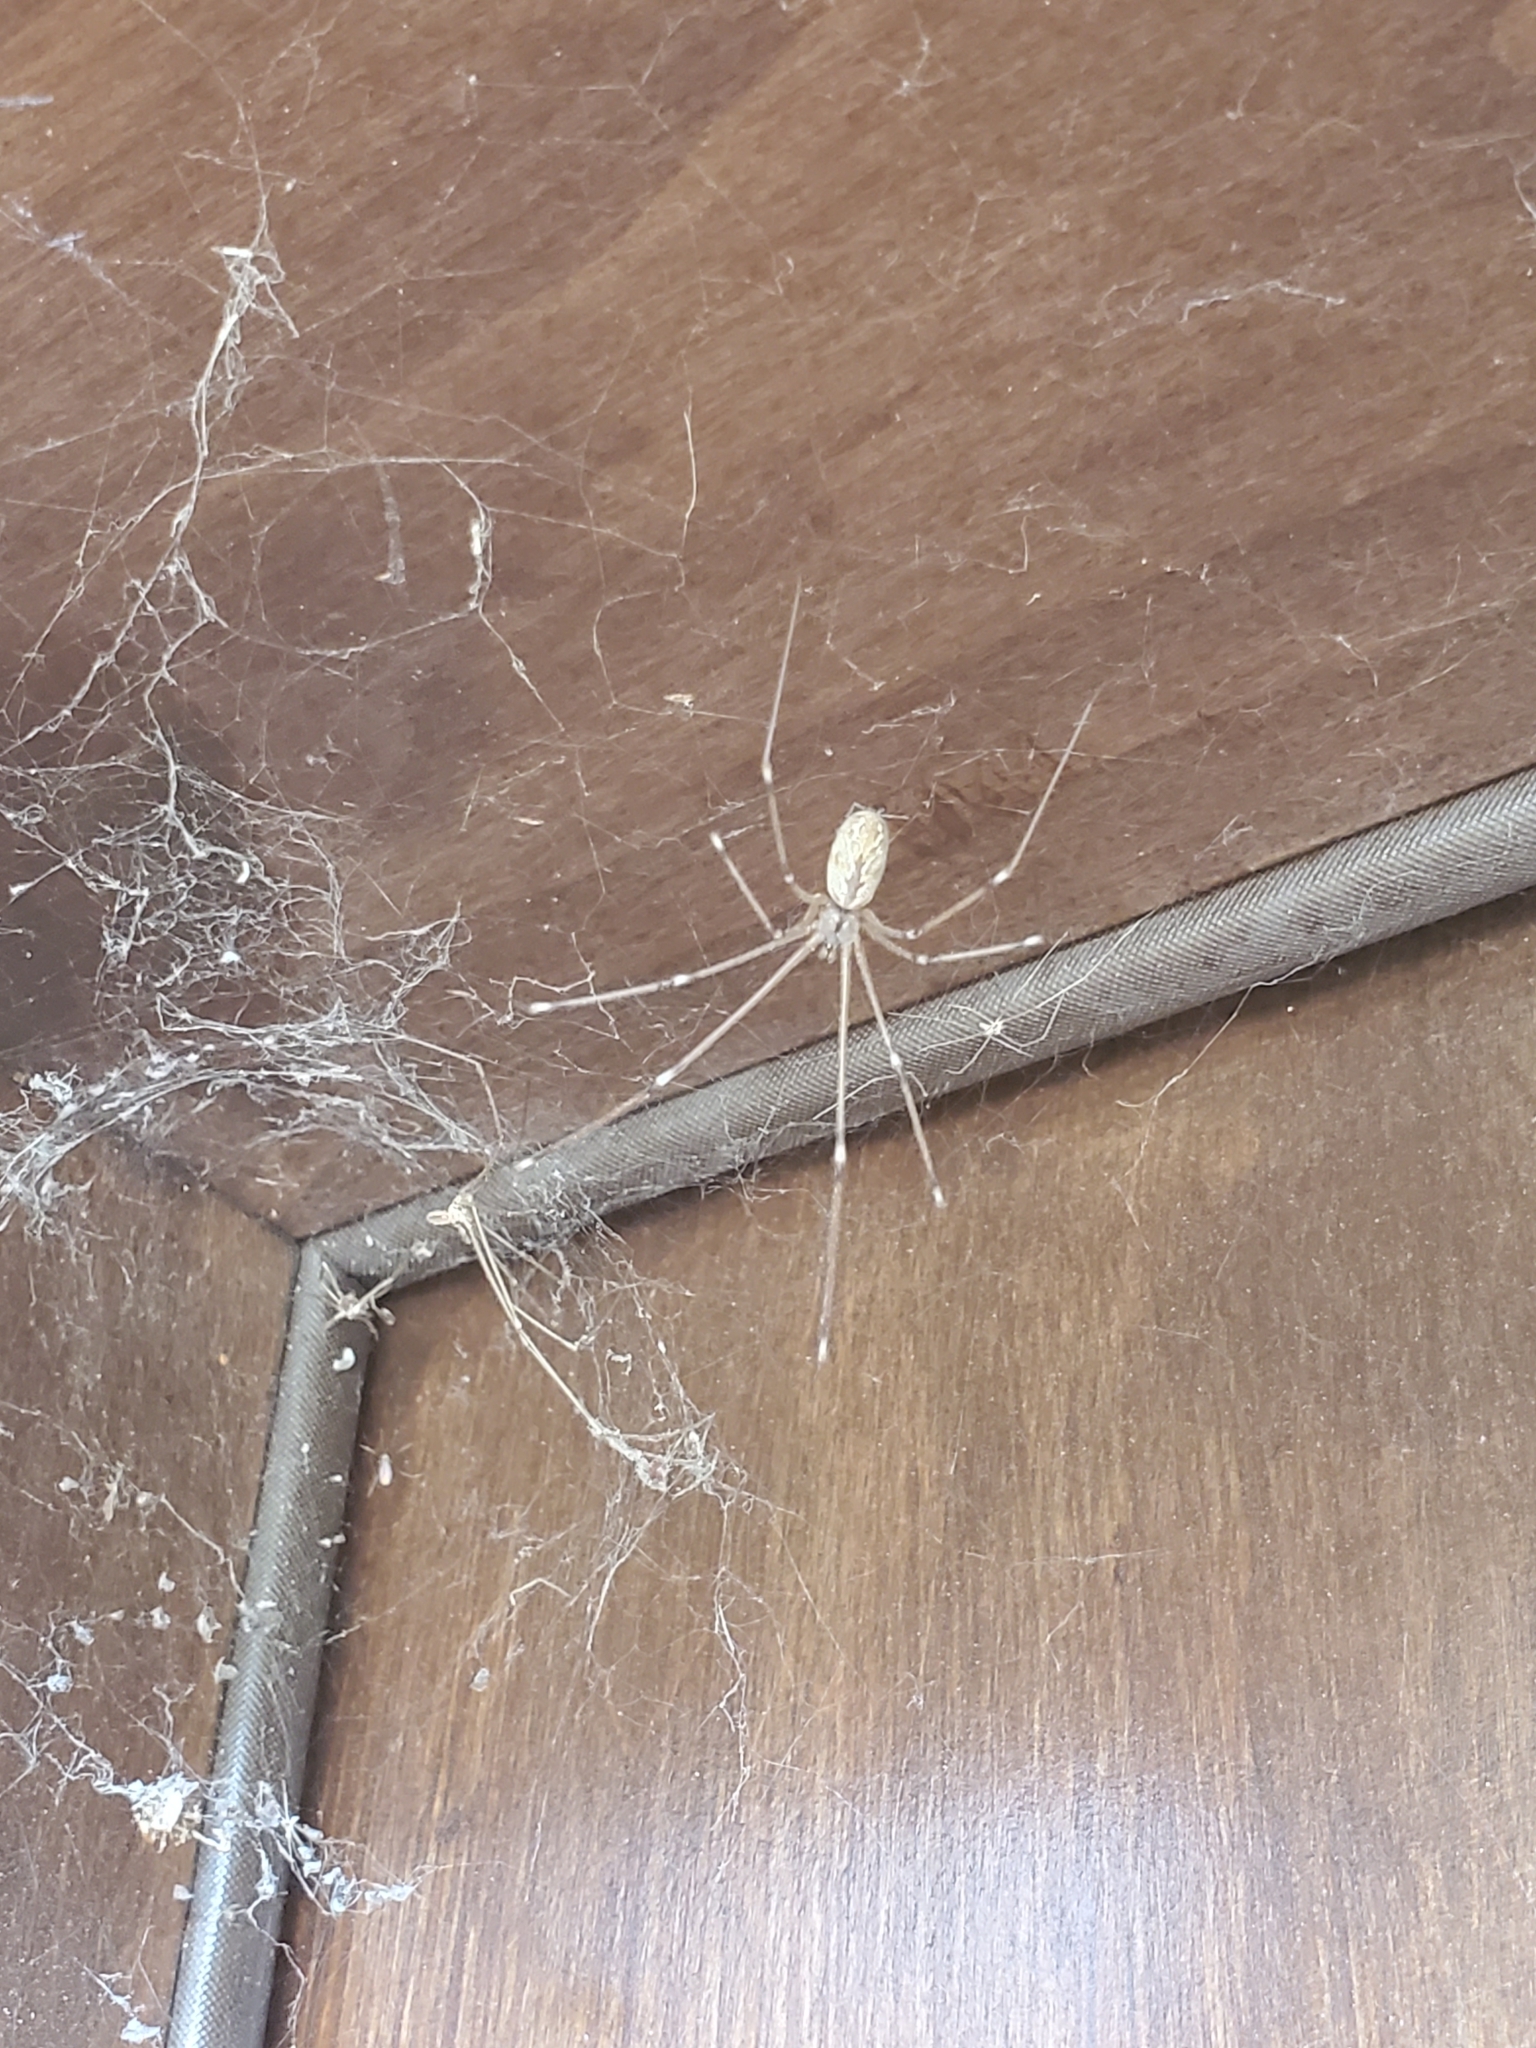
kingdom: Animalia
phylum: Arthropoda
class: Arachnida
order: Araneae
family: Pholcidae
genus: Holocnemus
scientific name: Holocnemus pluchei
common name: Marbled cellar spider
